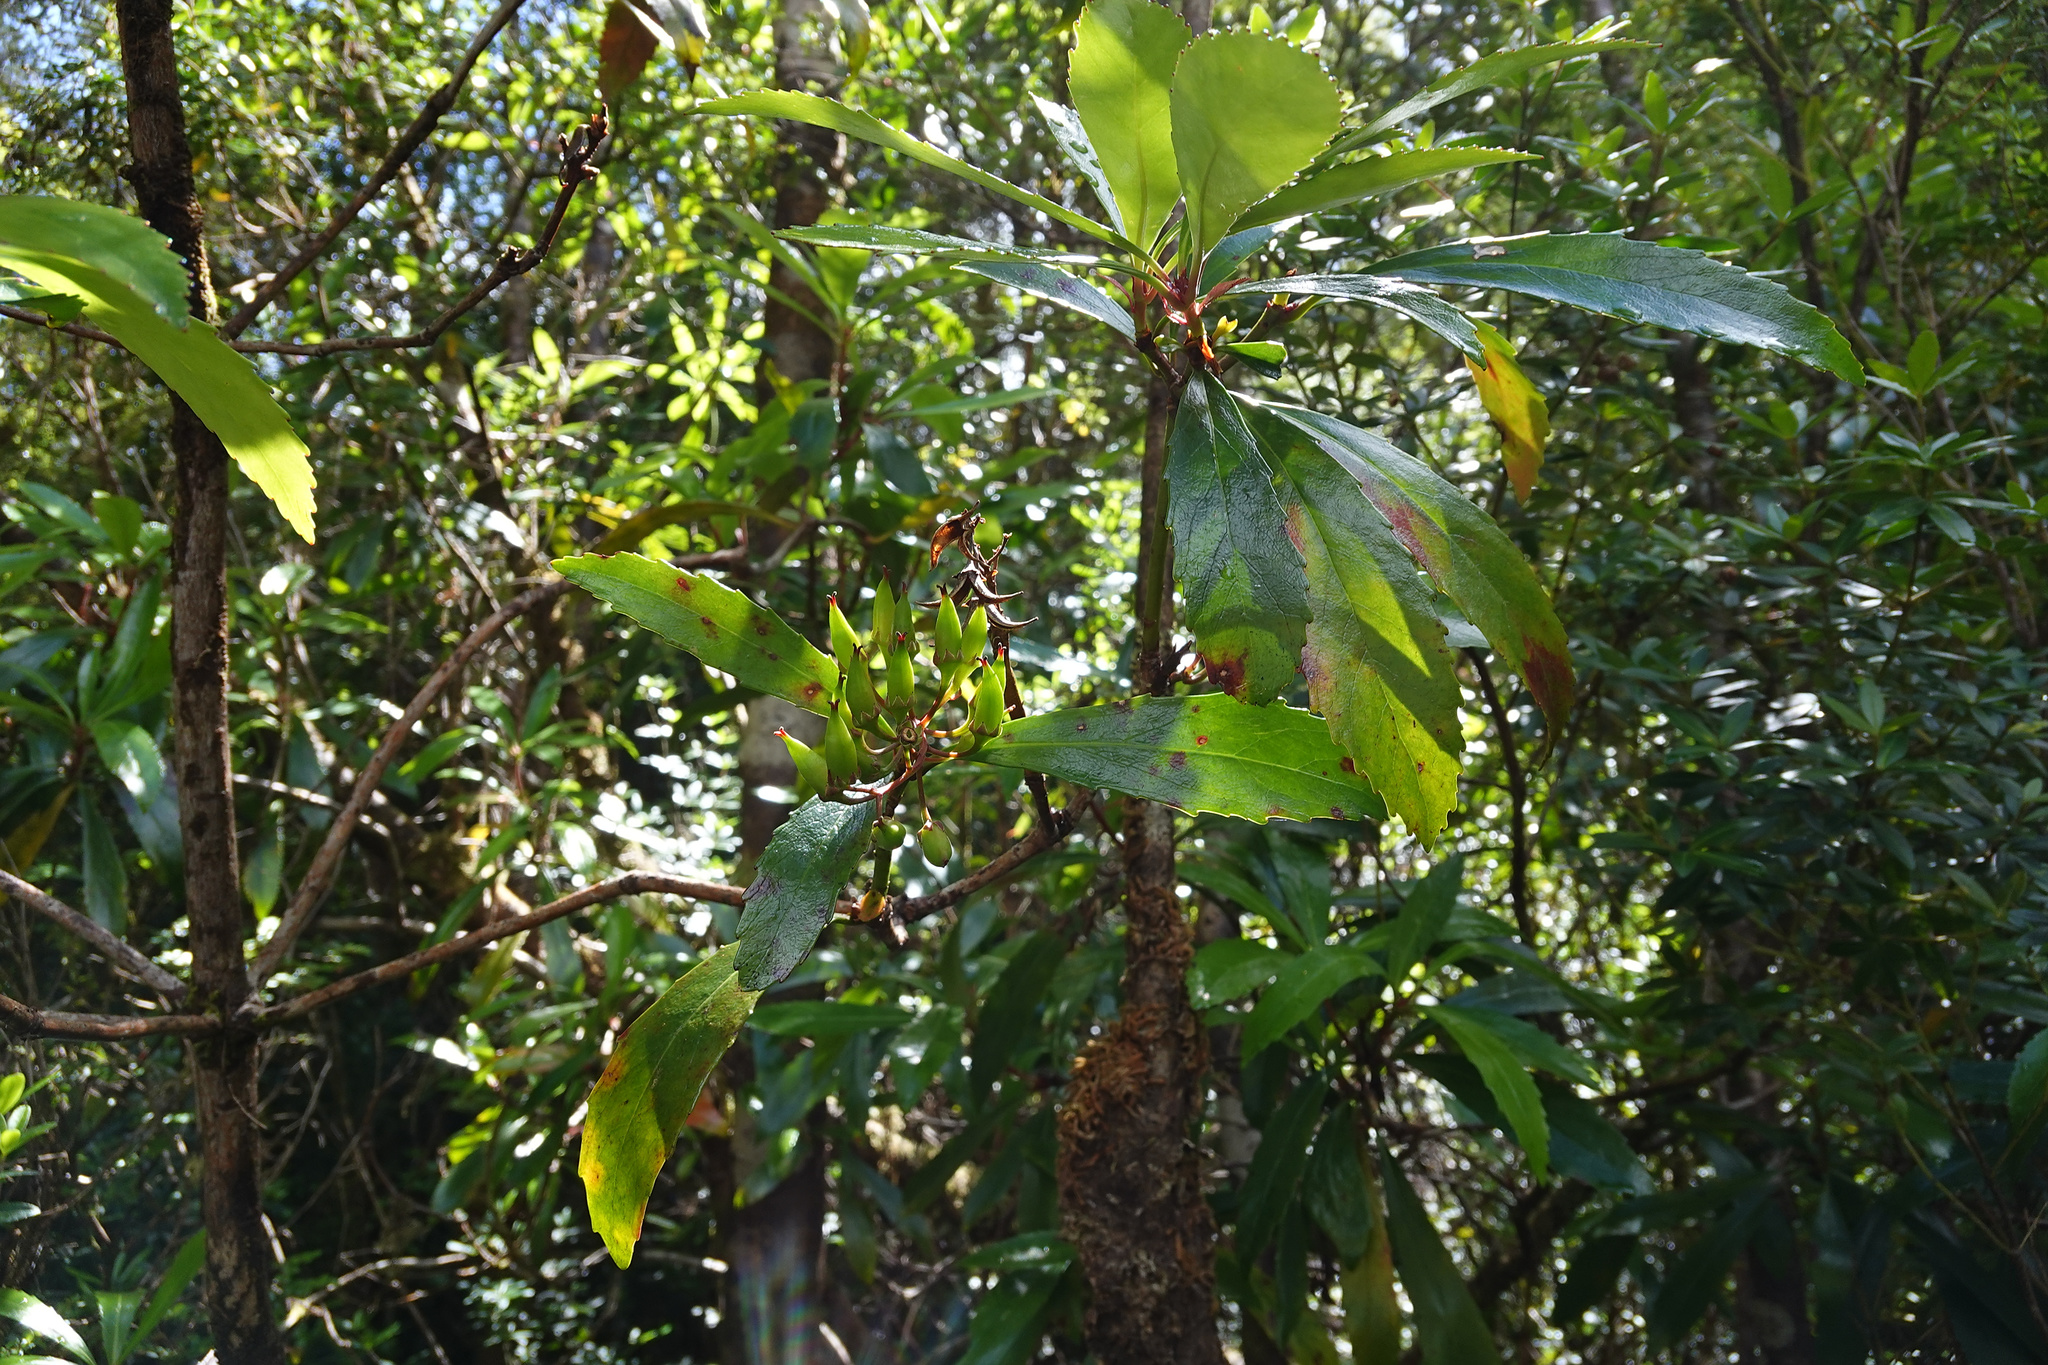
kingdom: Plantae
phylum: Tracheophyta
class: Magnoliopsida
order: Escalloniales
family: Escalloniaceae
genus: Anopterus
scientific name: Anopterus glandulosus
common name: Tasmanian-laurel
